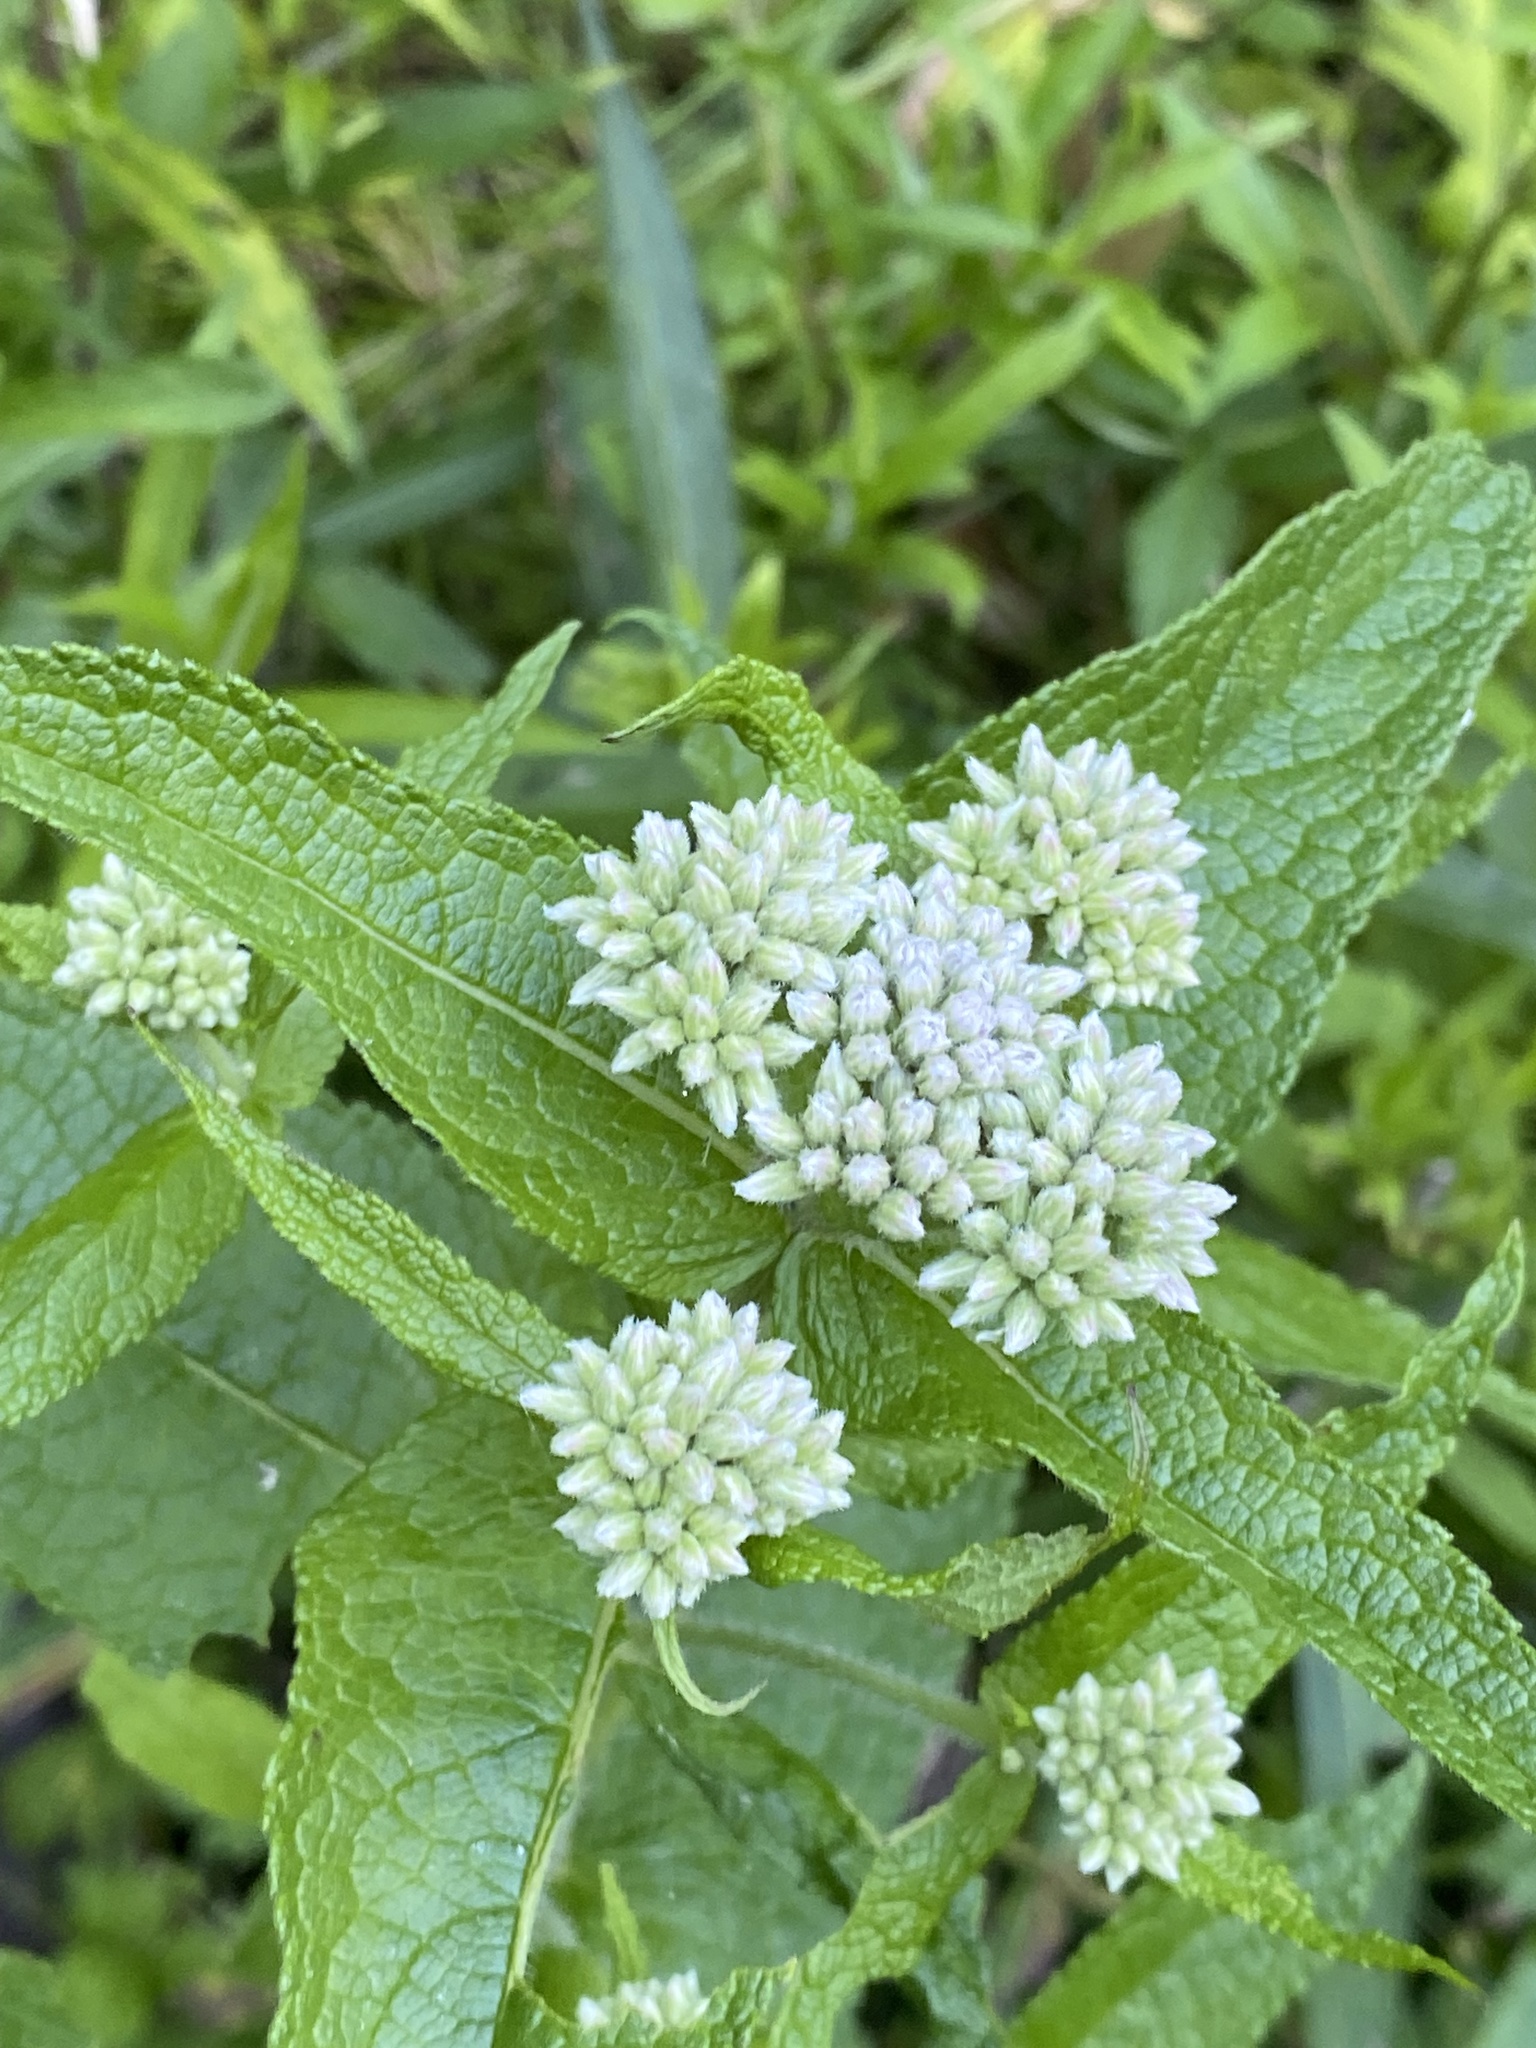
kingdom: Plantae
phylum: Tracheophyta
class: Magnoliopsida
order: Asterales
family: Asteraceae
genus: Eupatorium
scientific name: Eupatorium perfoliatum
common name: Boneset
